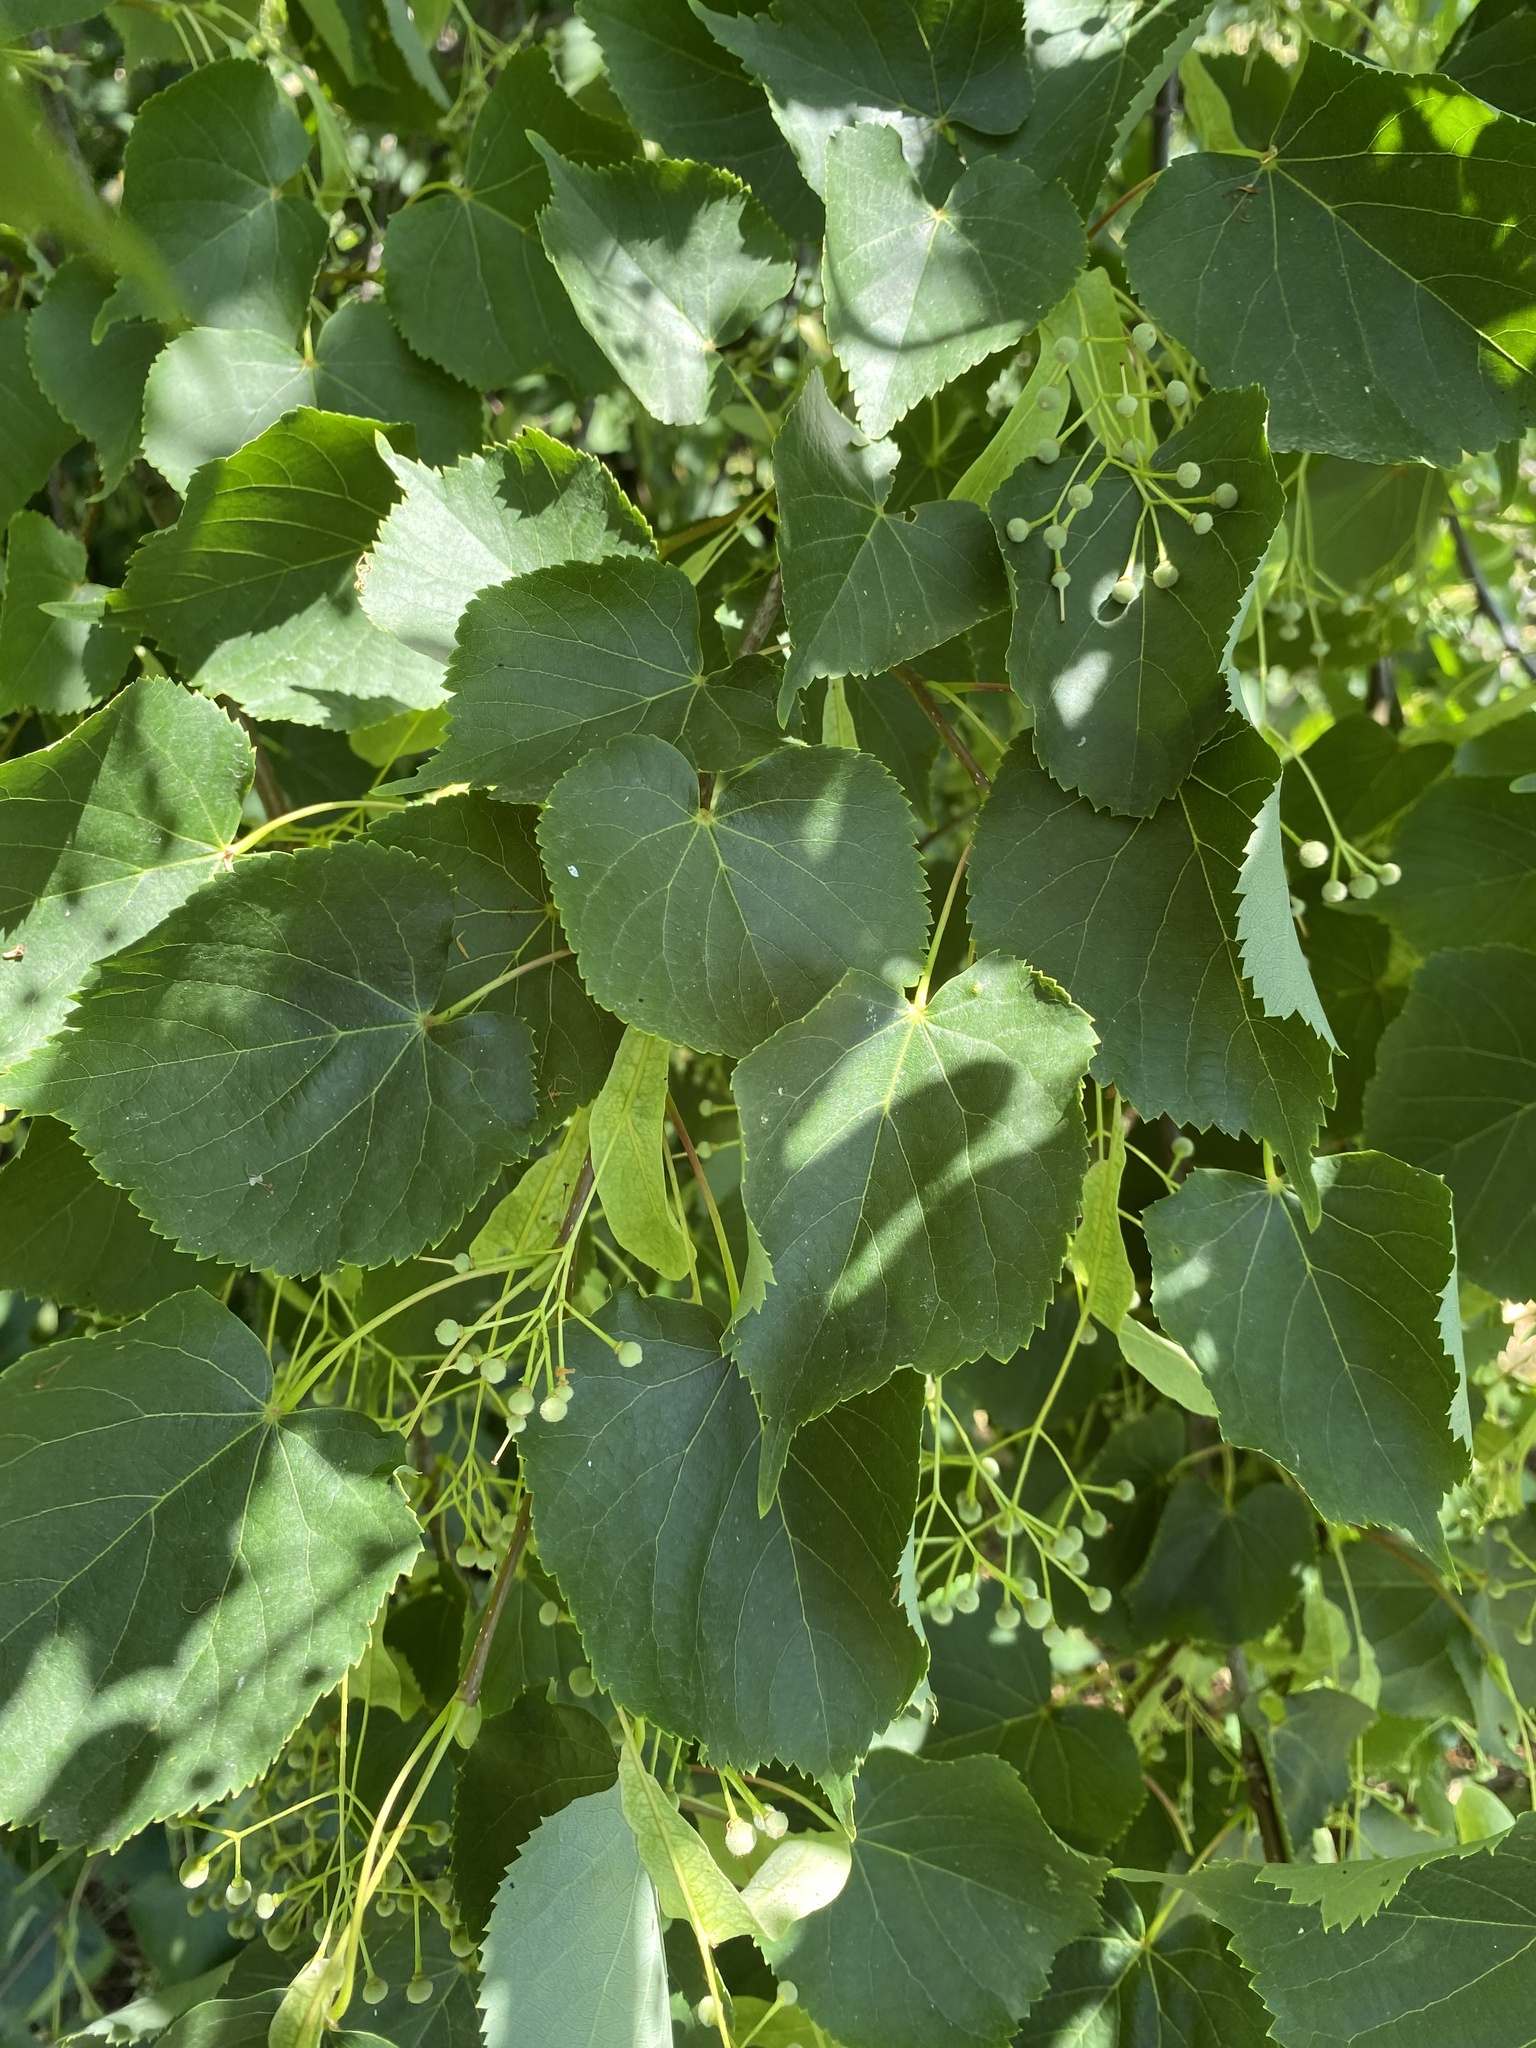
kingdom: Plantae
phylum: Tracheophyta
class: Magnoliopsida
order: Malvales
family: Malvaceae
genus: Tilia
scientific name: Tilia cordata
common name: Small-leaved lime
